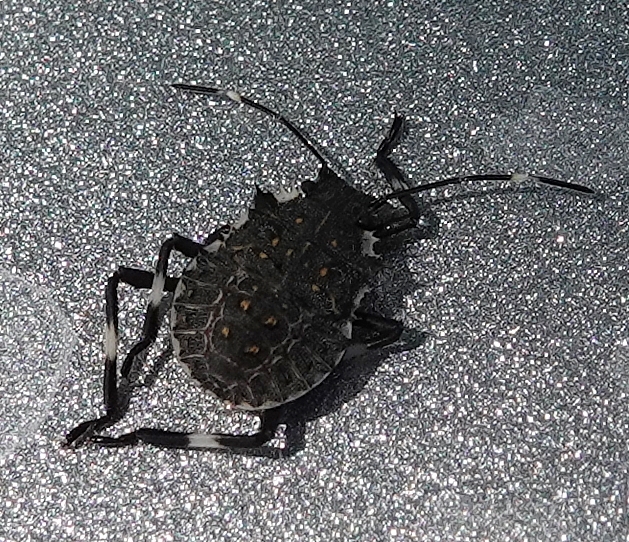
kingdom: Animalia
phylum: Arthropoda
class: Insecta
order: Hemiptera
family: Pentatomidae
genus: Halyomorpha
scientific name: Halyomorpha halys
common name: Brown marmorated stink bug
